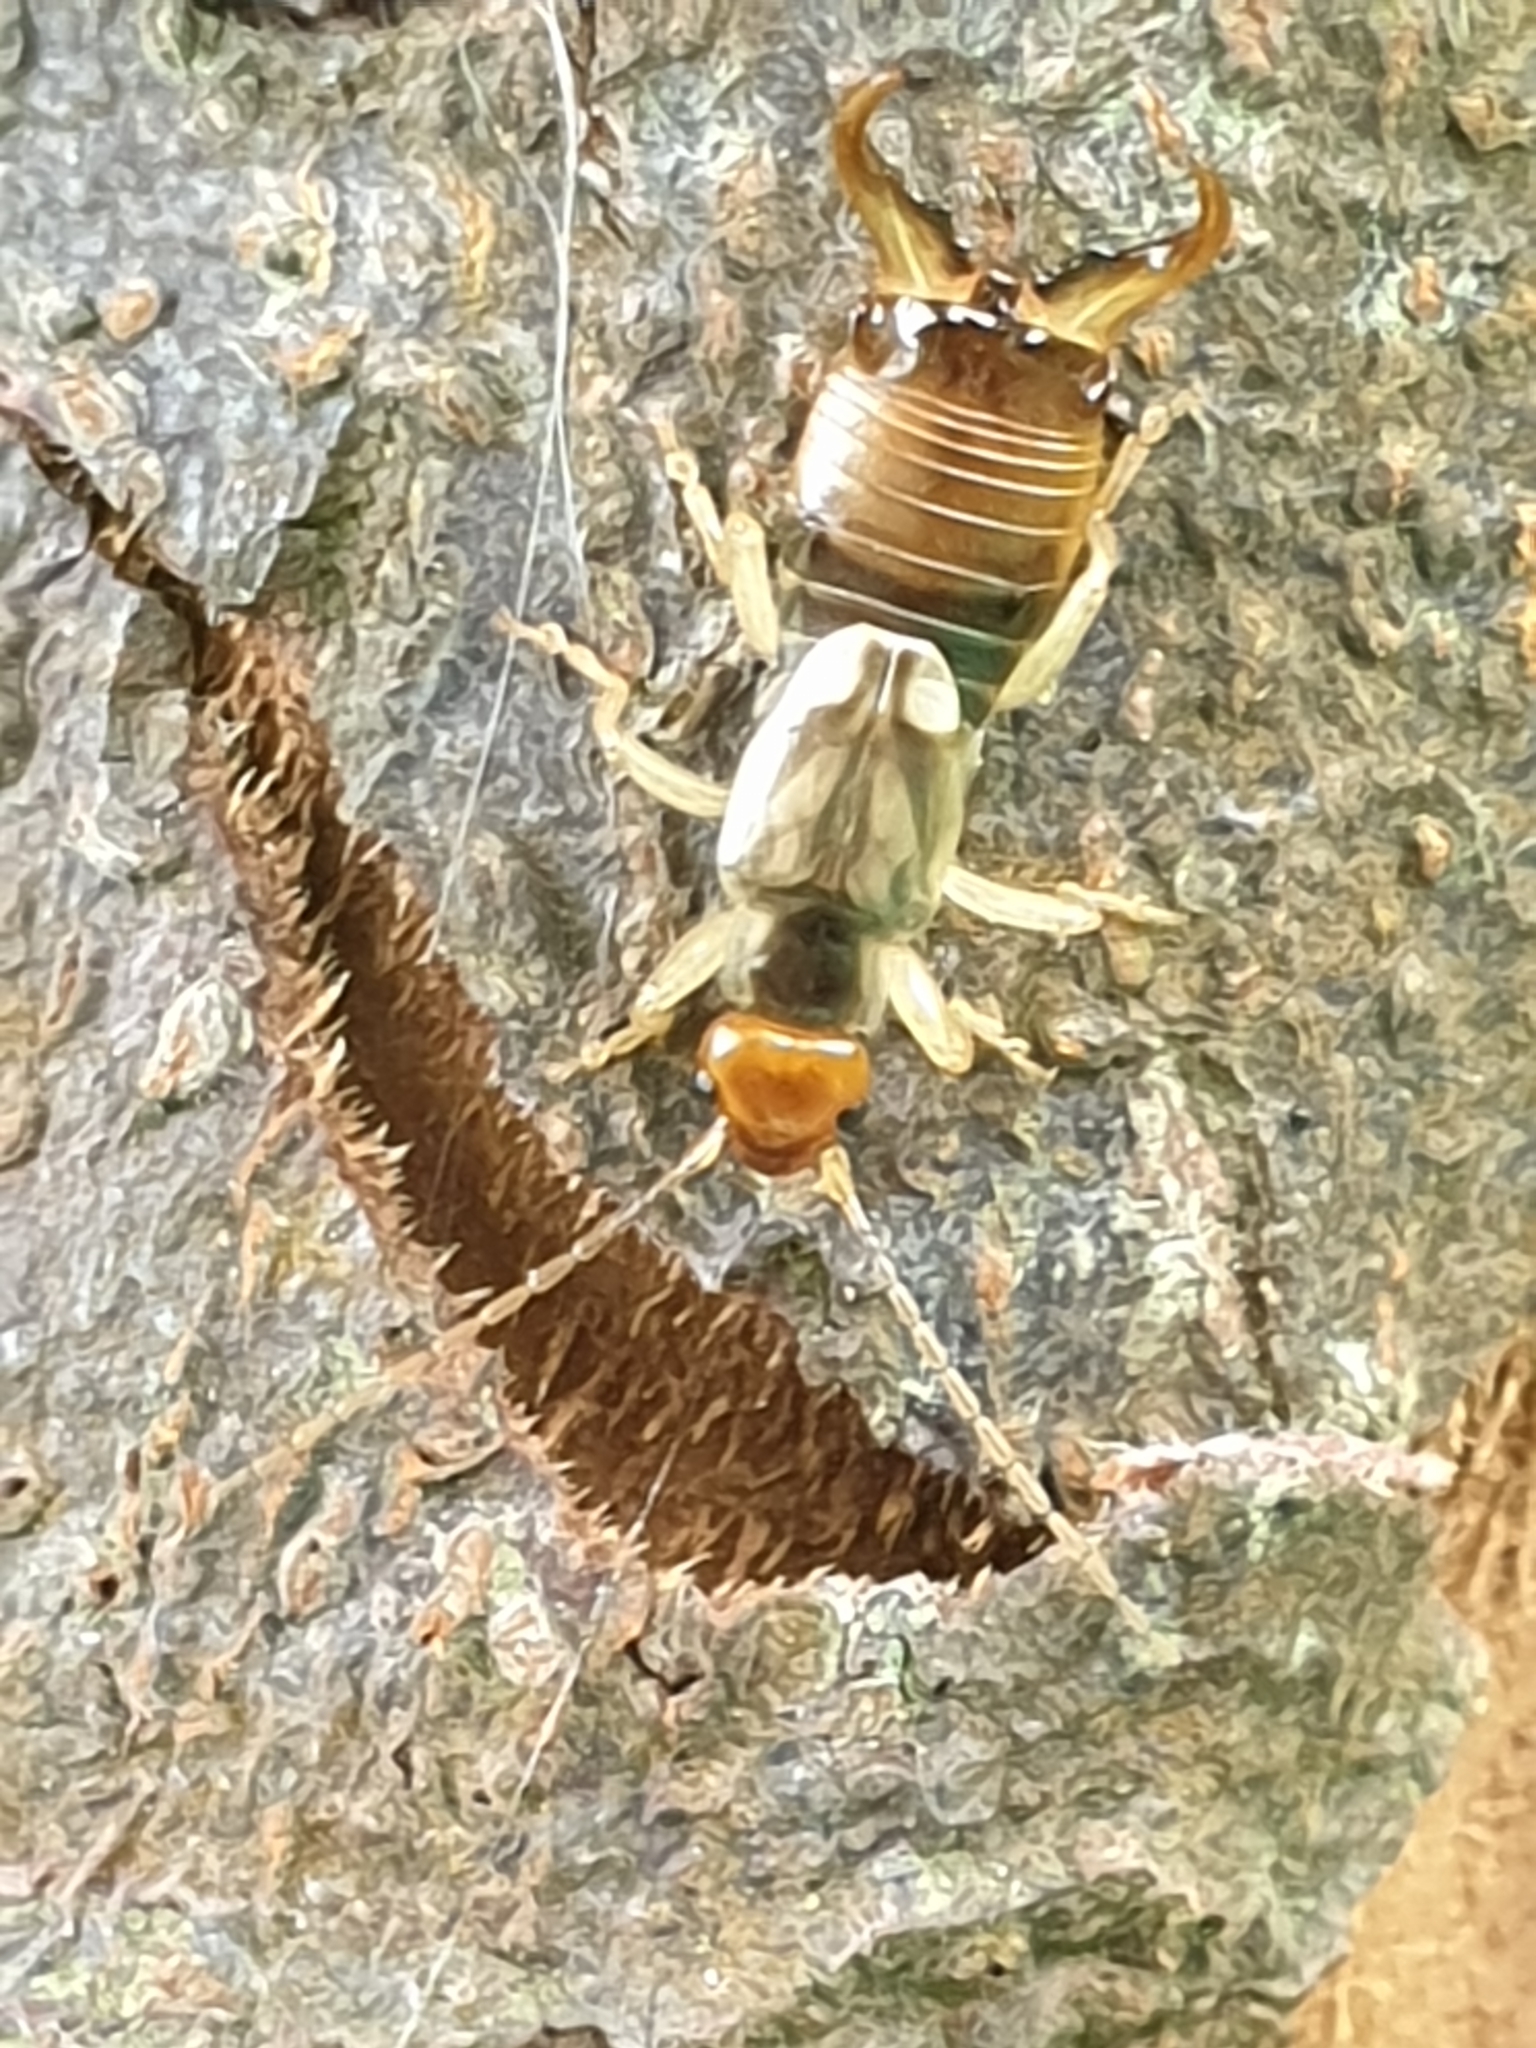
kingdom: Animalia
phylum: Arthropoda
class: Insecta
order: Dermaptera
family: Forficulidae
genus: Forficula
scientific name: Forficula
